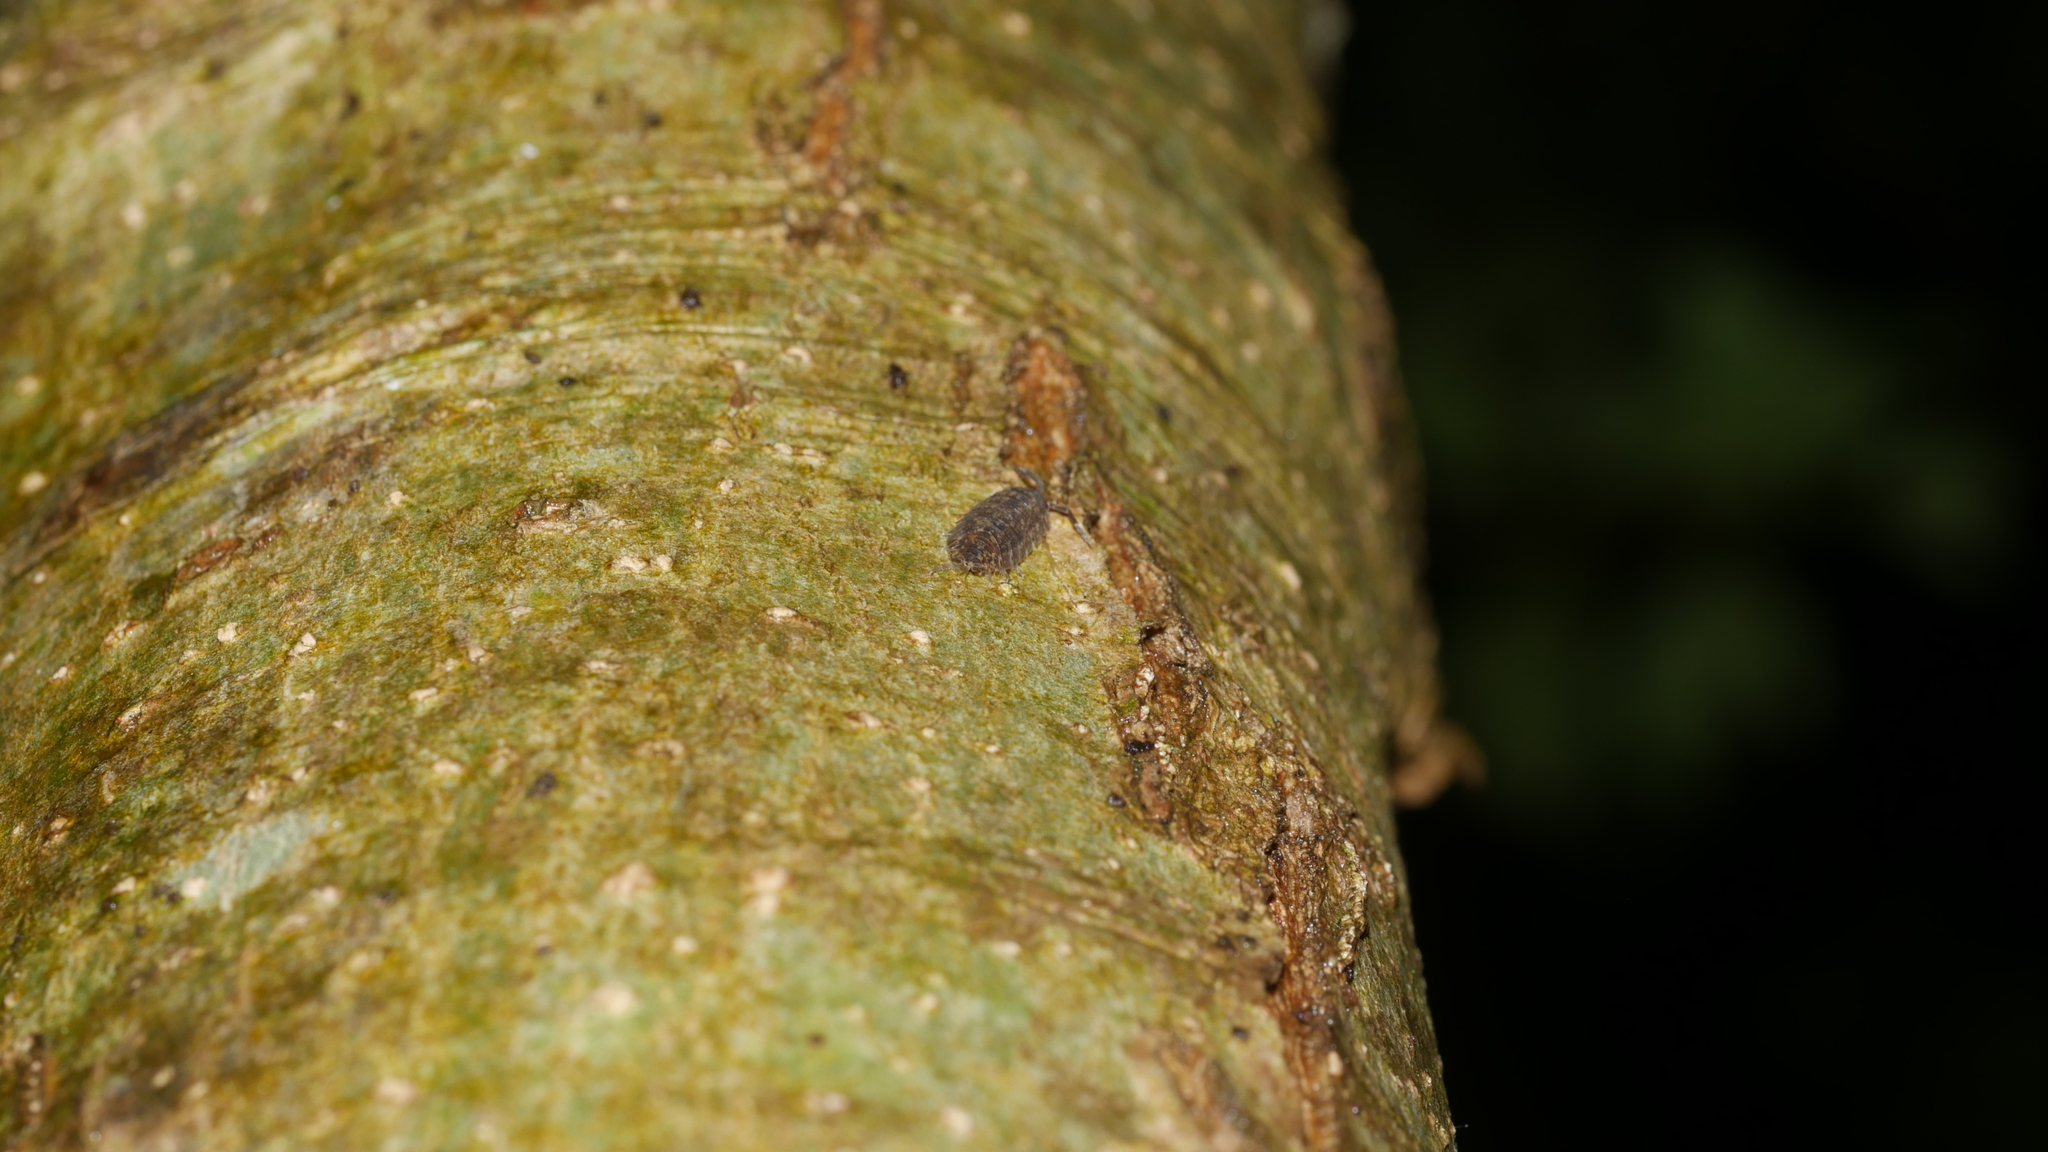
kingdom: Animalia
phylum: Arthropoda
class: Malacostraca
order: Isopoda
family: Porcellionidae
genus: Porcellio
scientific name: Porcellio scaber
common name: Common rough woodlouse
